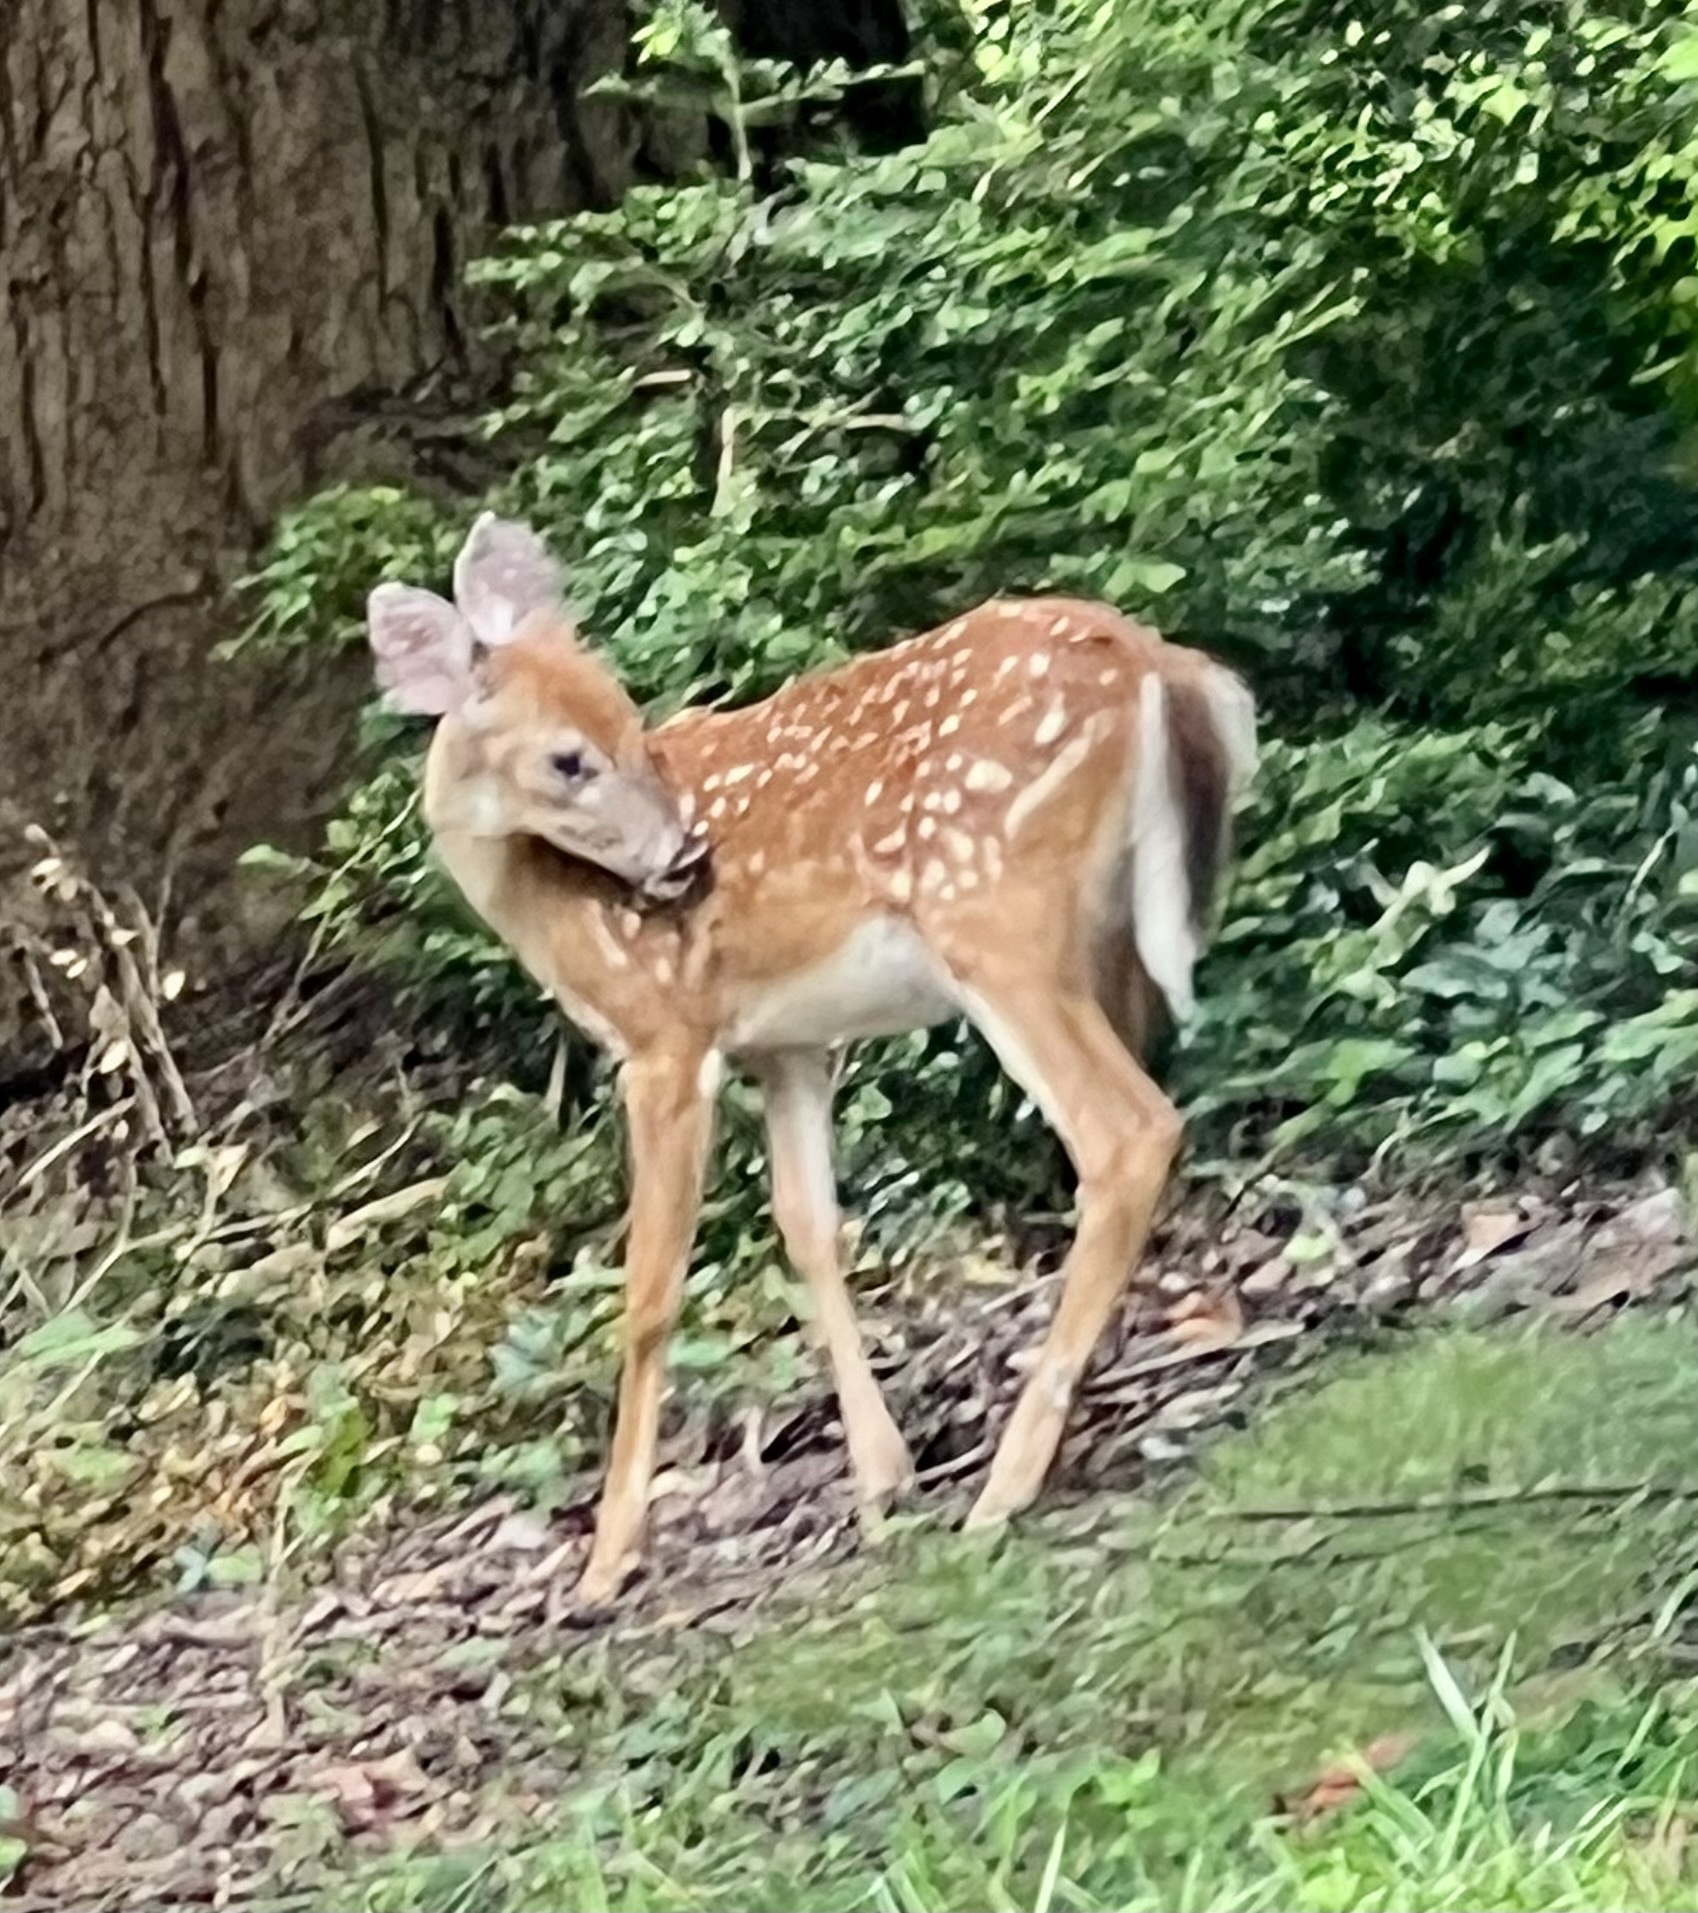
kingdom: Animalia
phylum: Chordata
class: Mammalia
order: Artiodactyla
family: Cervidae
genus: Odocoileus
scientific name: Odocoileus virginianus
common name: White-tailed deer
